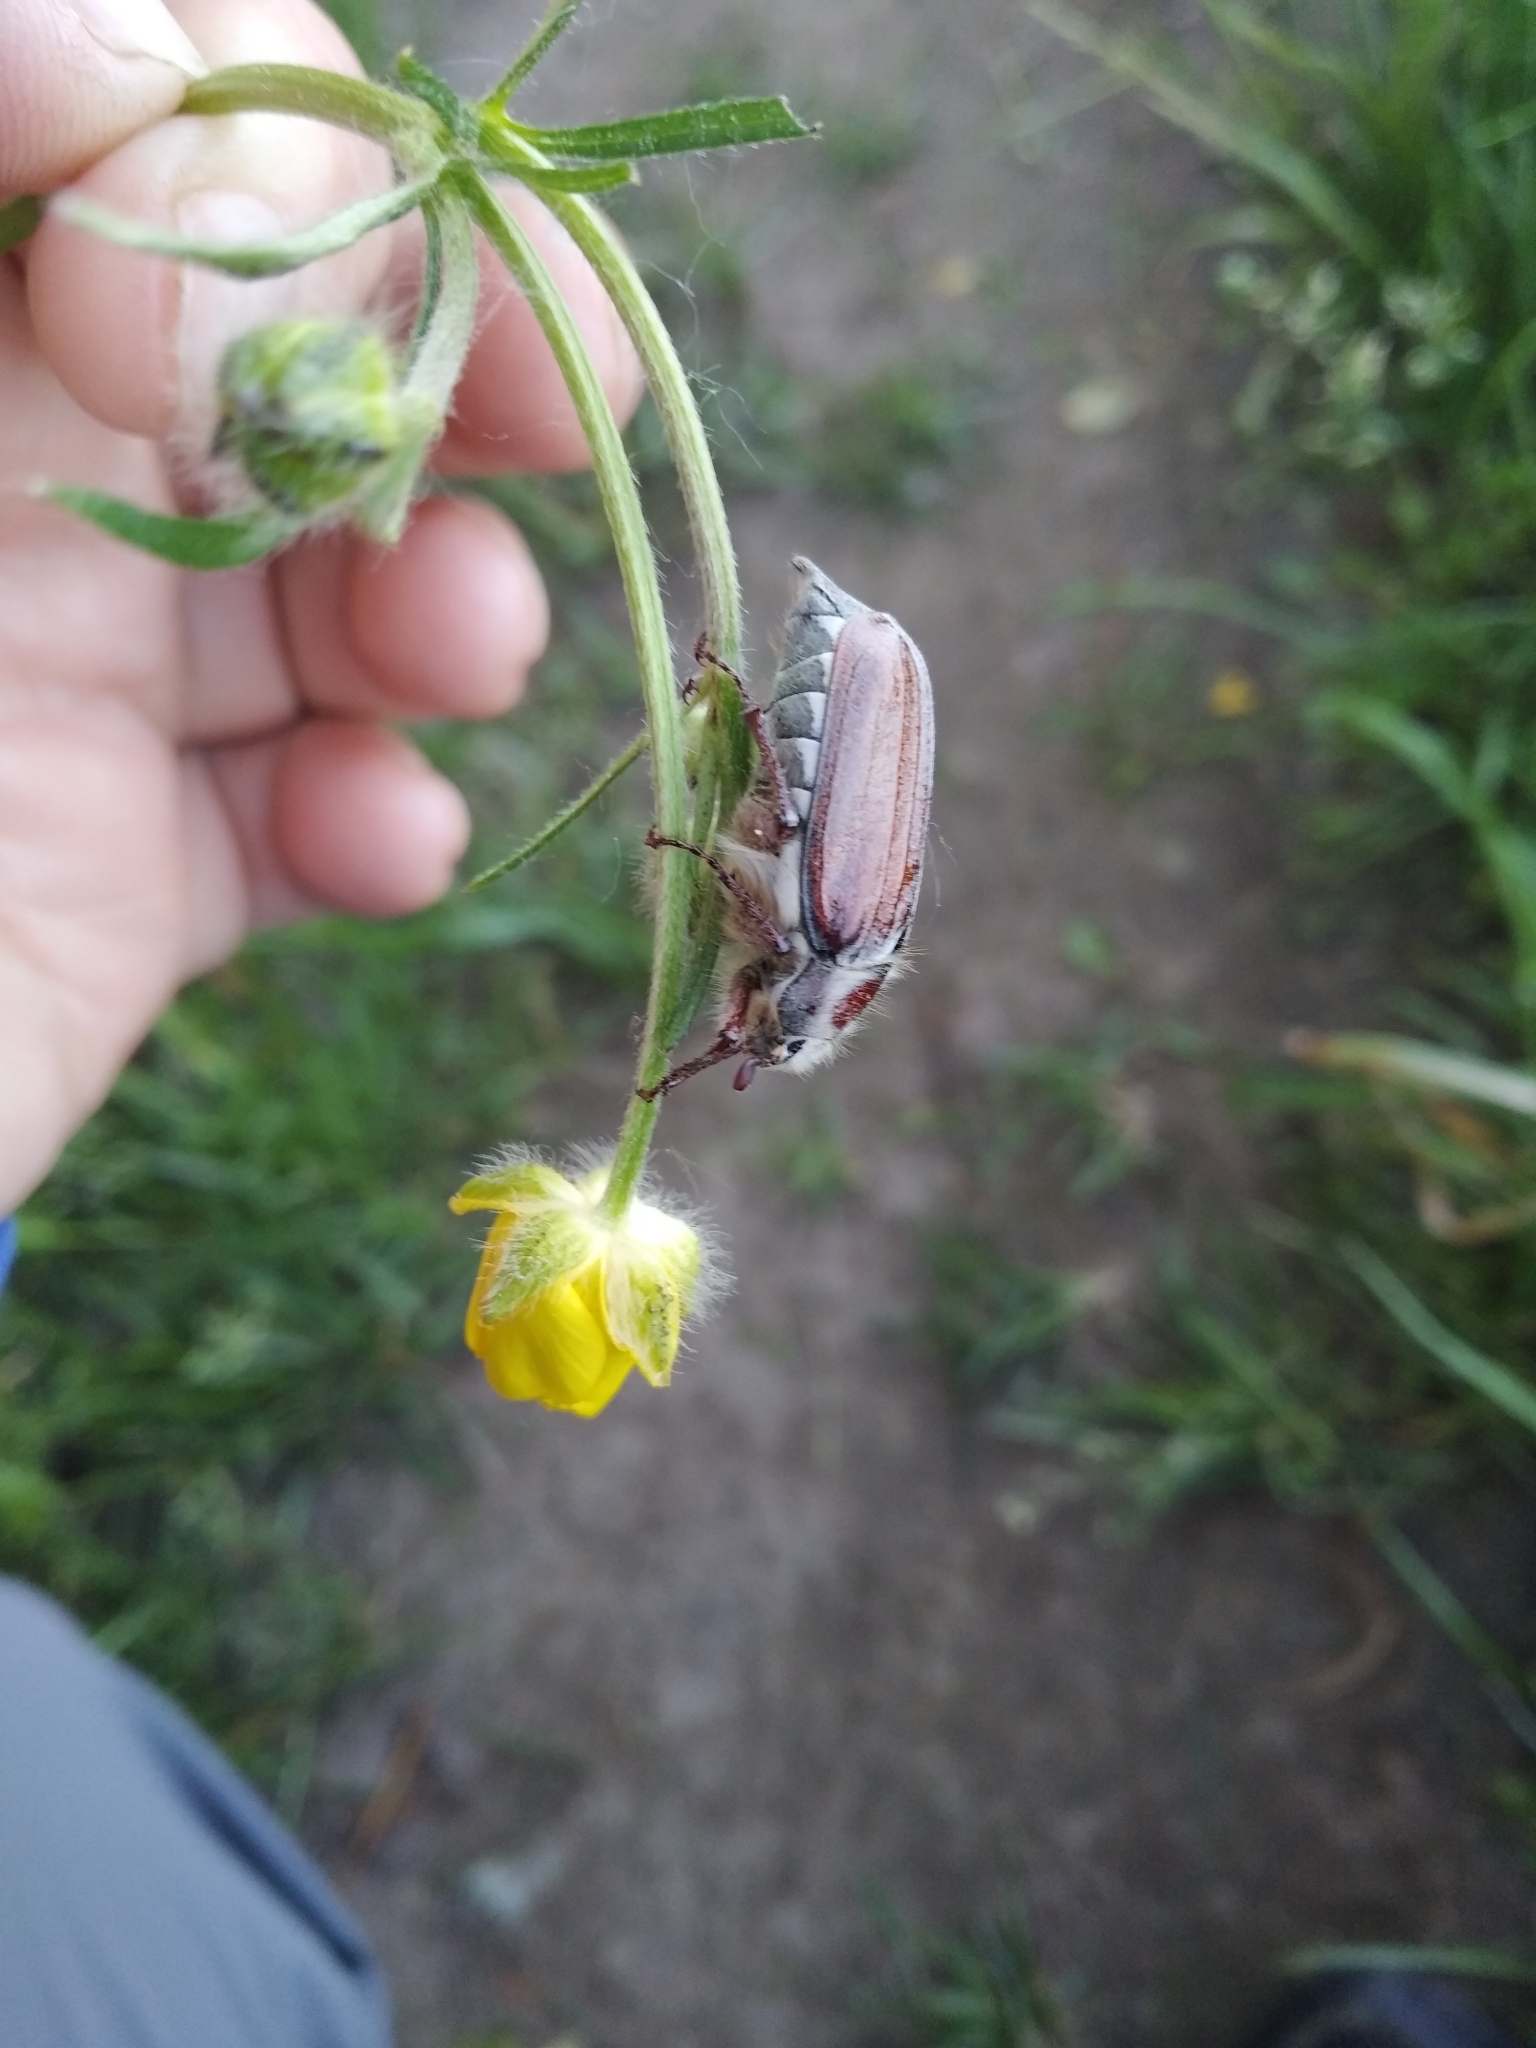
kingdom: Animalia
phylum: Arthropoda
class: Insecta
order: Coleoptera
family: Scarabaeidae
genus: Melolontha
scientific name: Melolontha hippocastani
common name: Chestnut cockchafer
